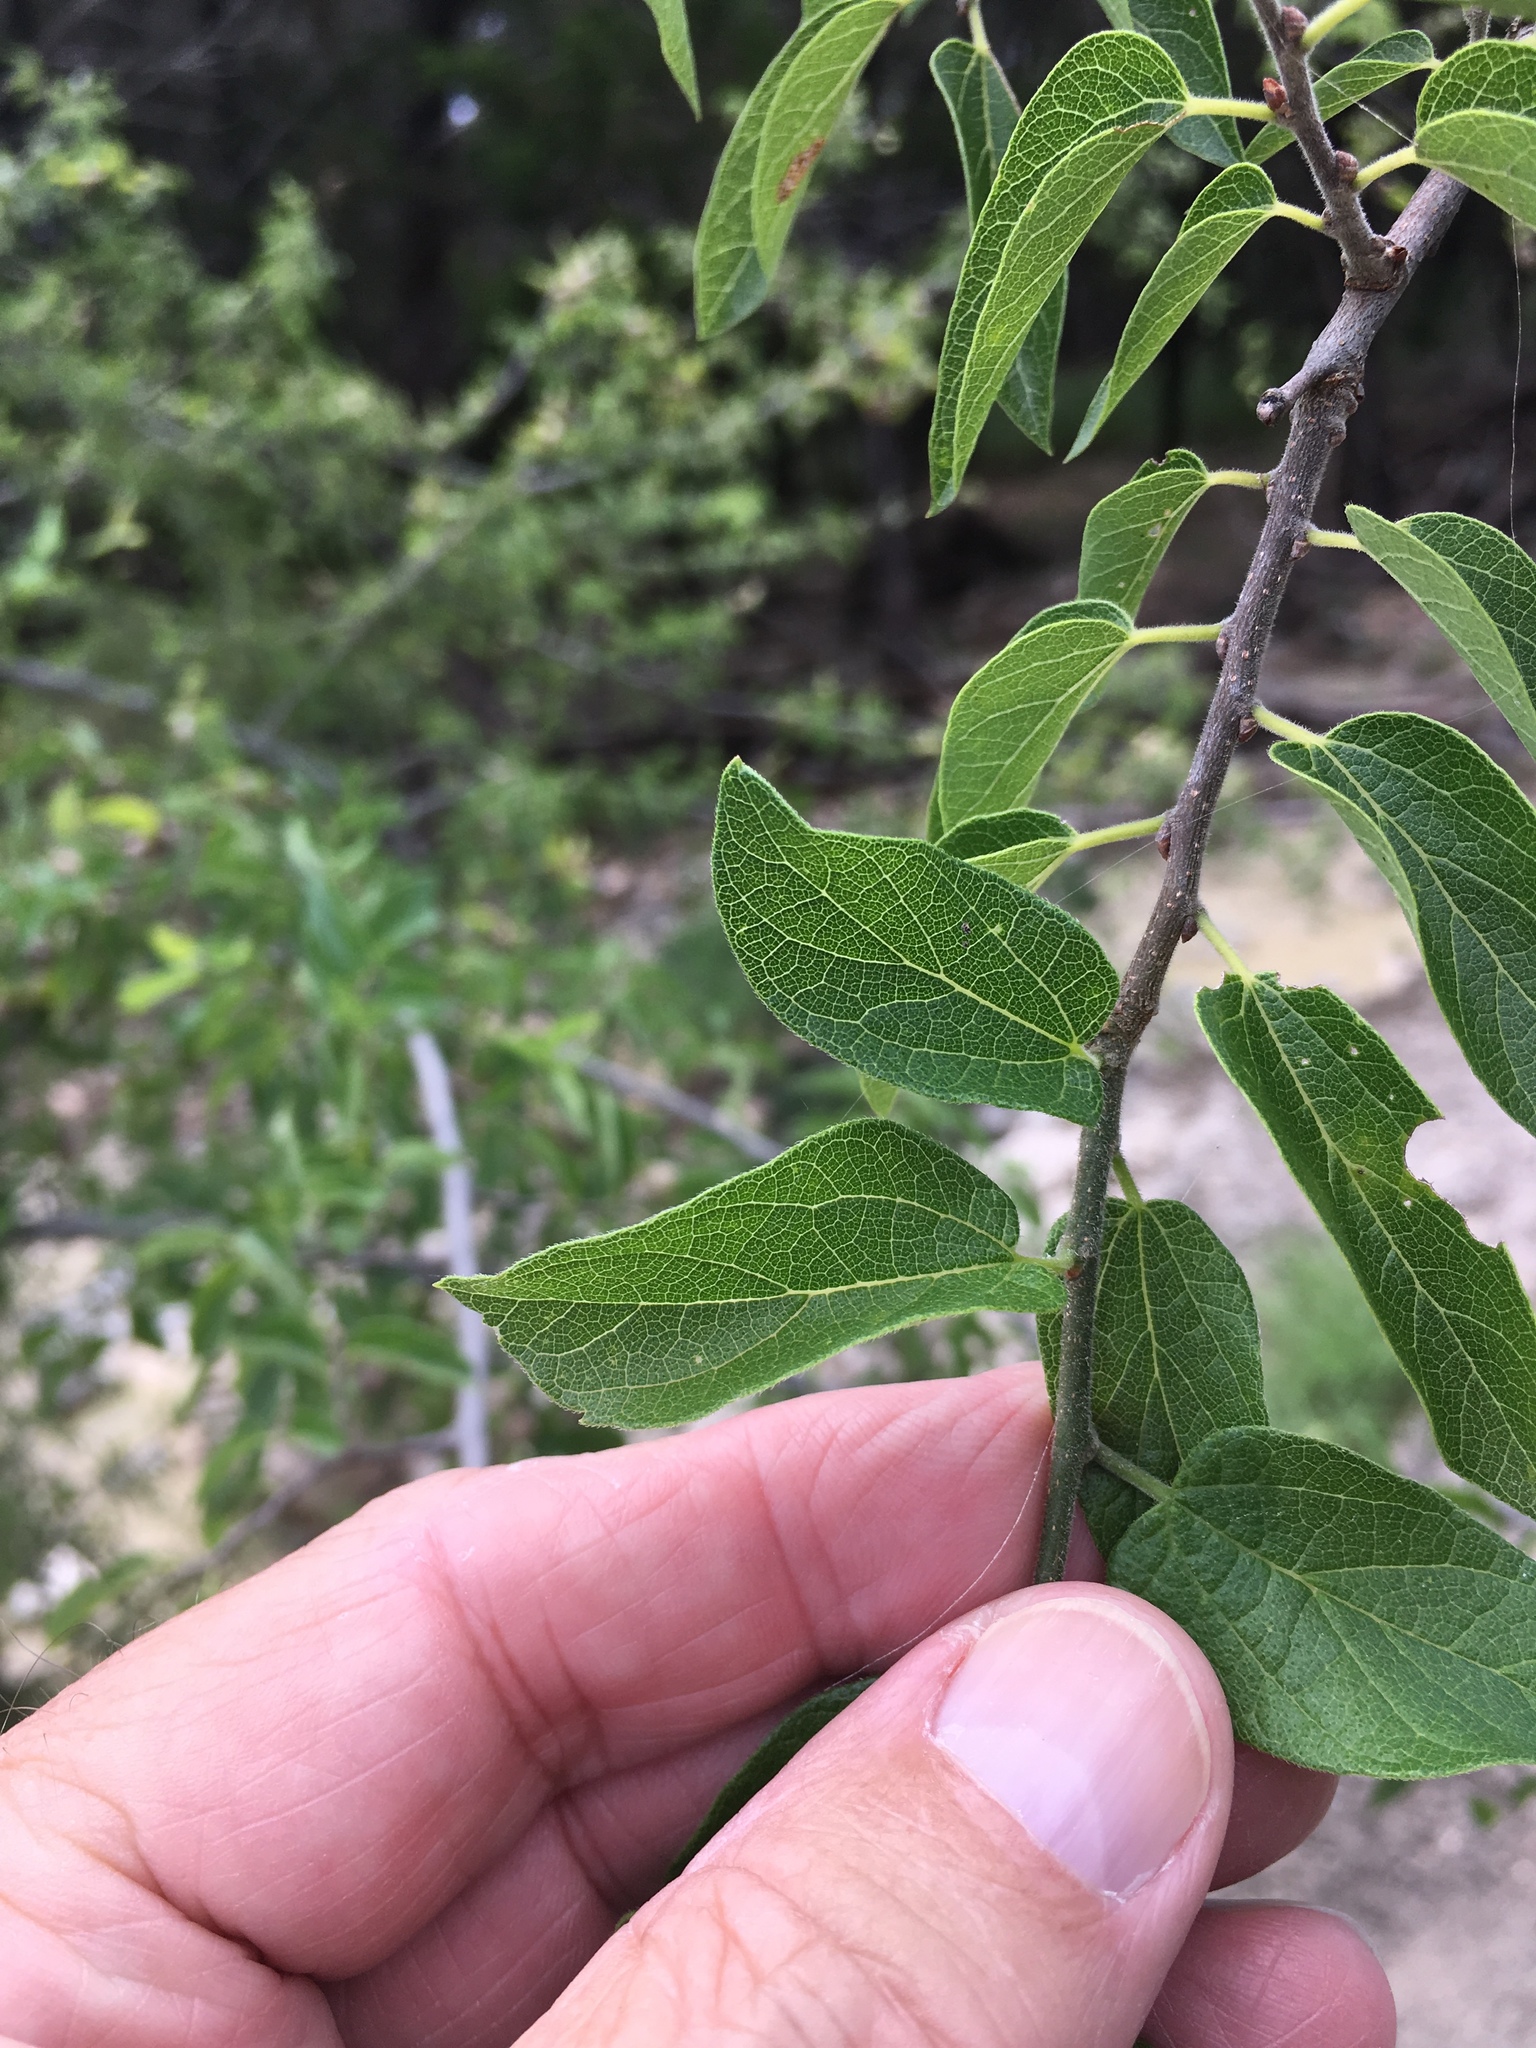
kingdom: Animalia
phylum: Arthropoda
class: Insecta
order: Hemiptera
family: Aphalaridae
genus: Pachypsylla
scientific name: Pachypsylla venusta
